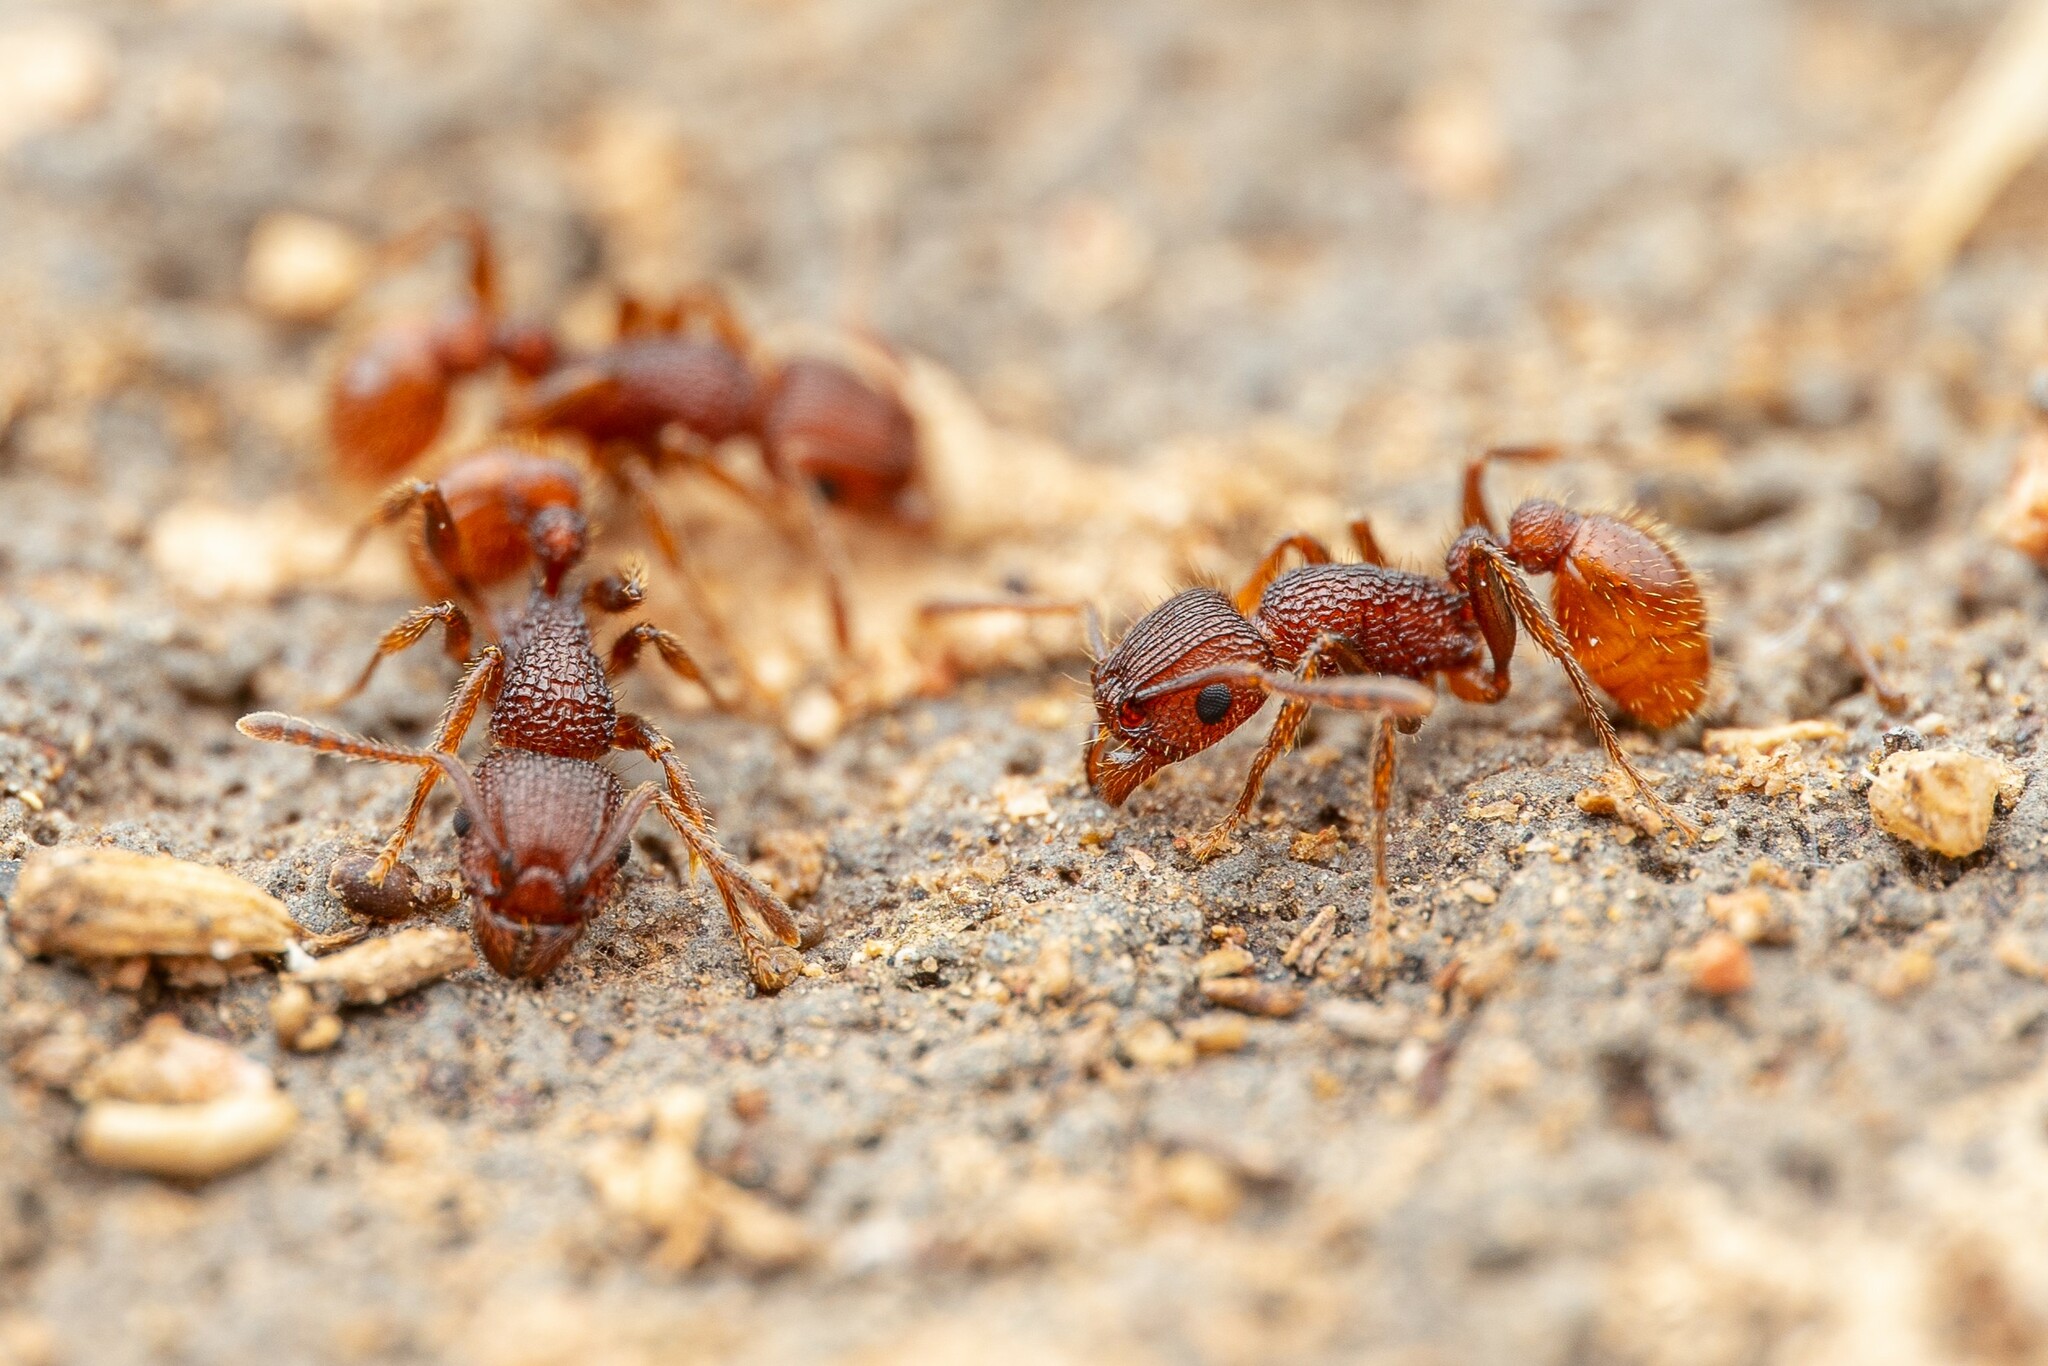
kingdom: Animalia
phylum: Arthropoda
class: Insecta
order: Hymenoptera
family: Formicidae
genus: Tetramorium
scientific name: Tetramorium hispidum
